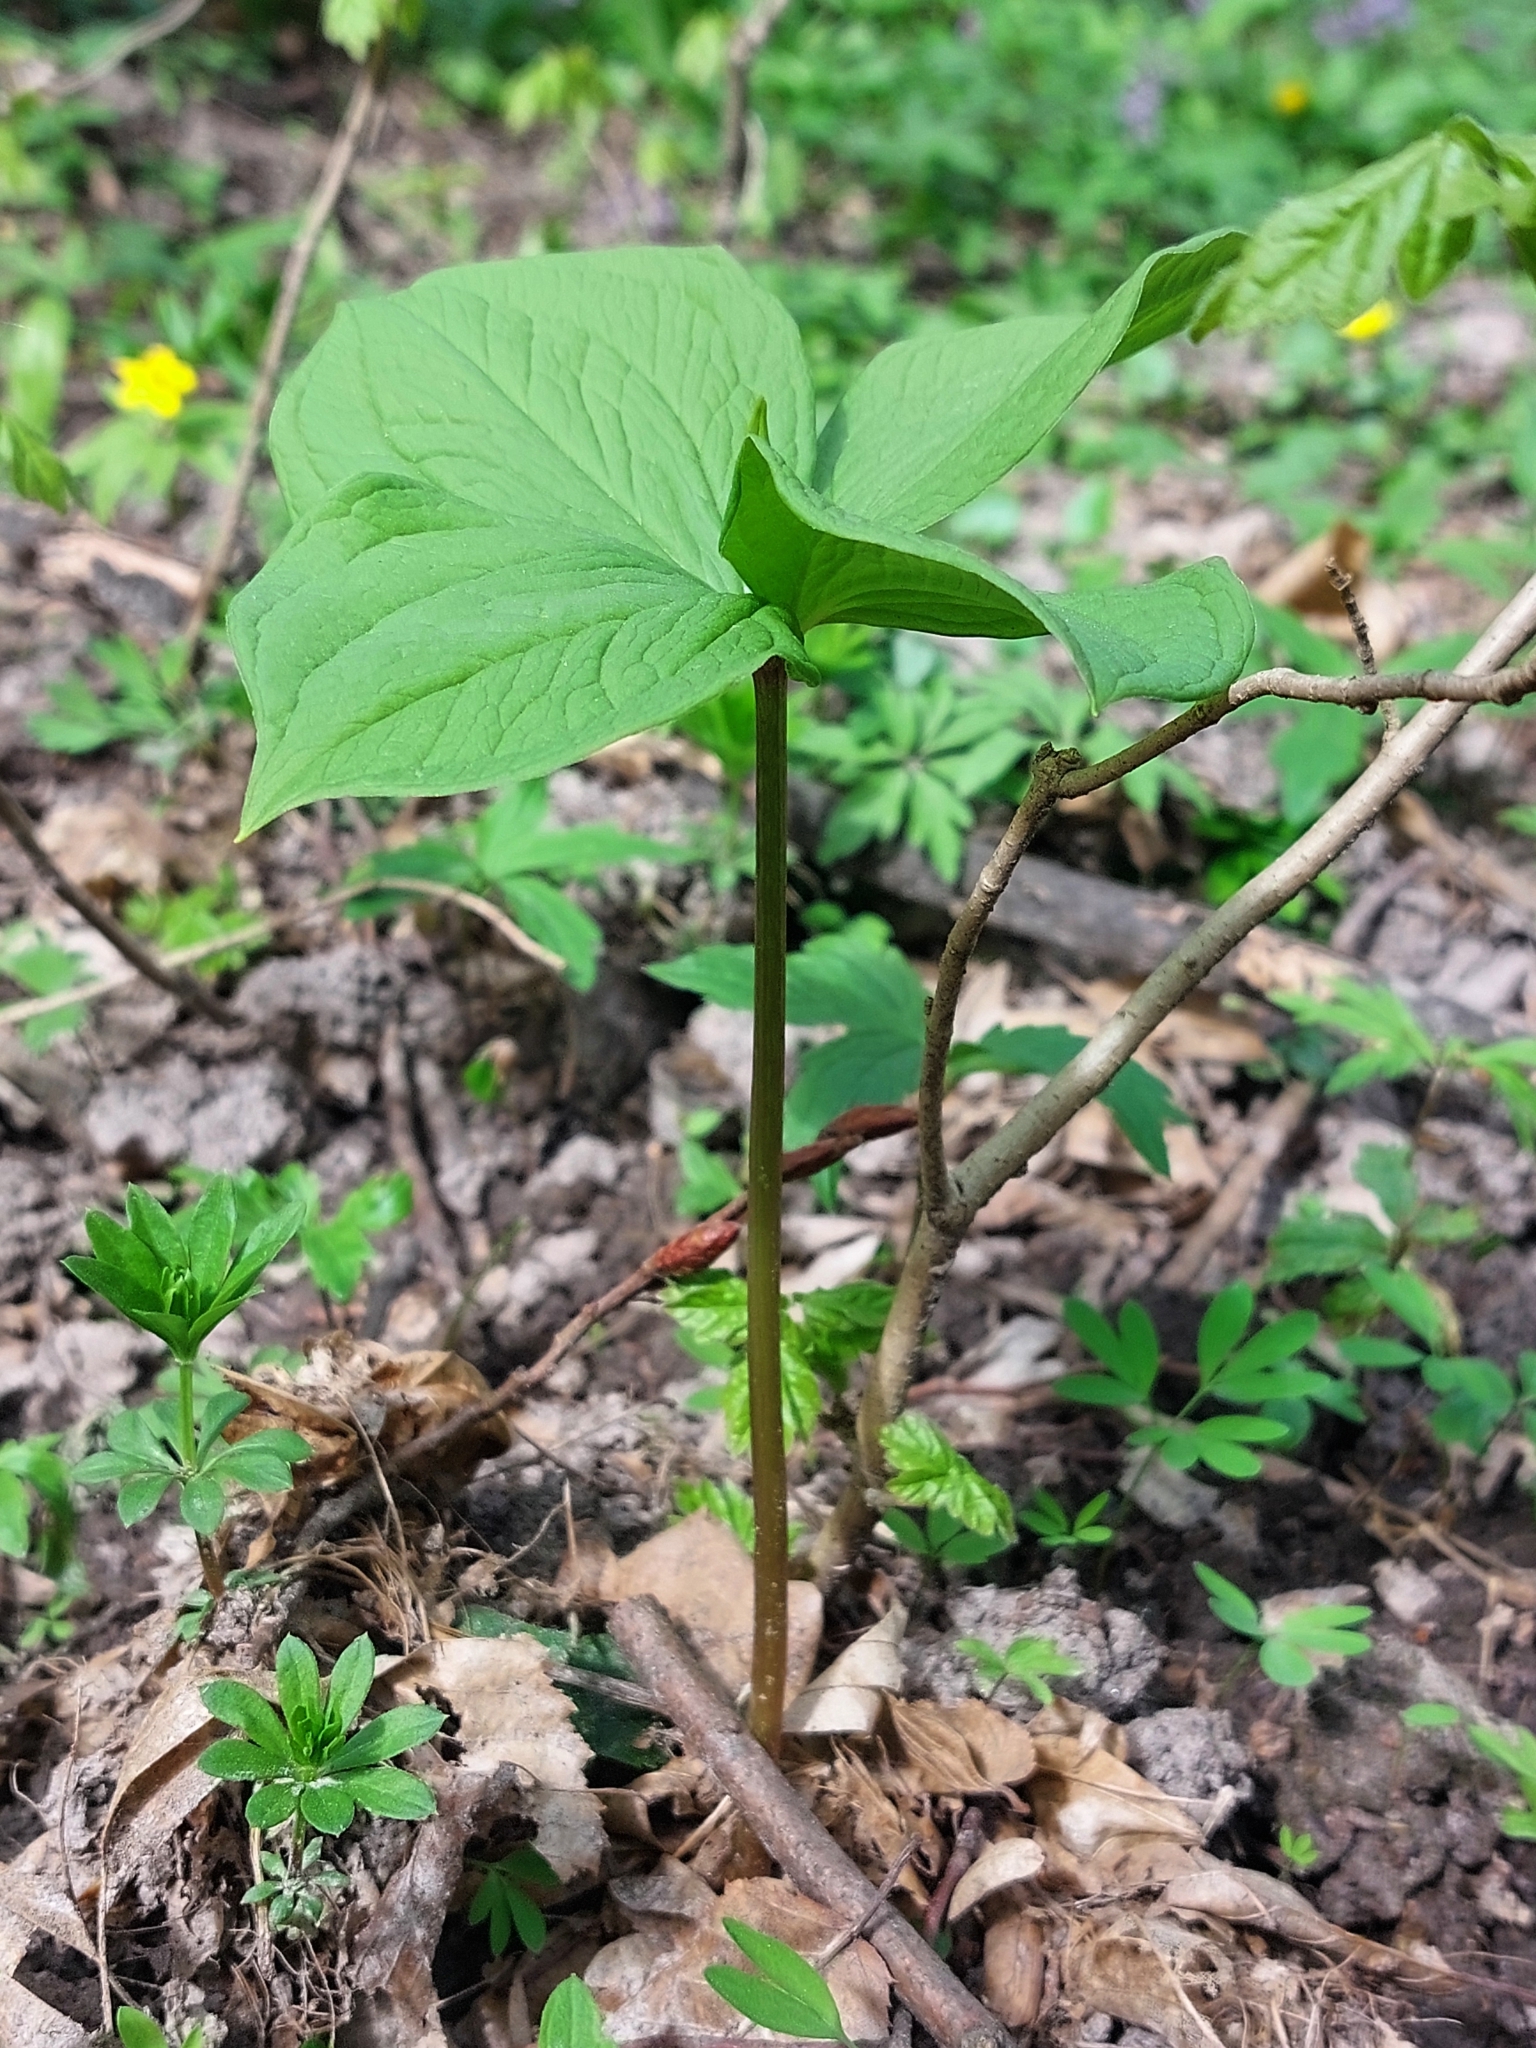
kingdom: Plantae
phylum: Tracheophyta
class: Liliopsida
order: Liliales
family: Melanthiaceae
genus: Paris
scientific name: Paris quadrifolia
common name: Herb-paris
